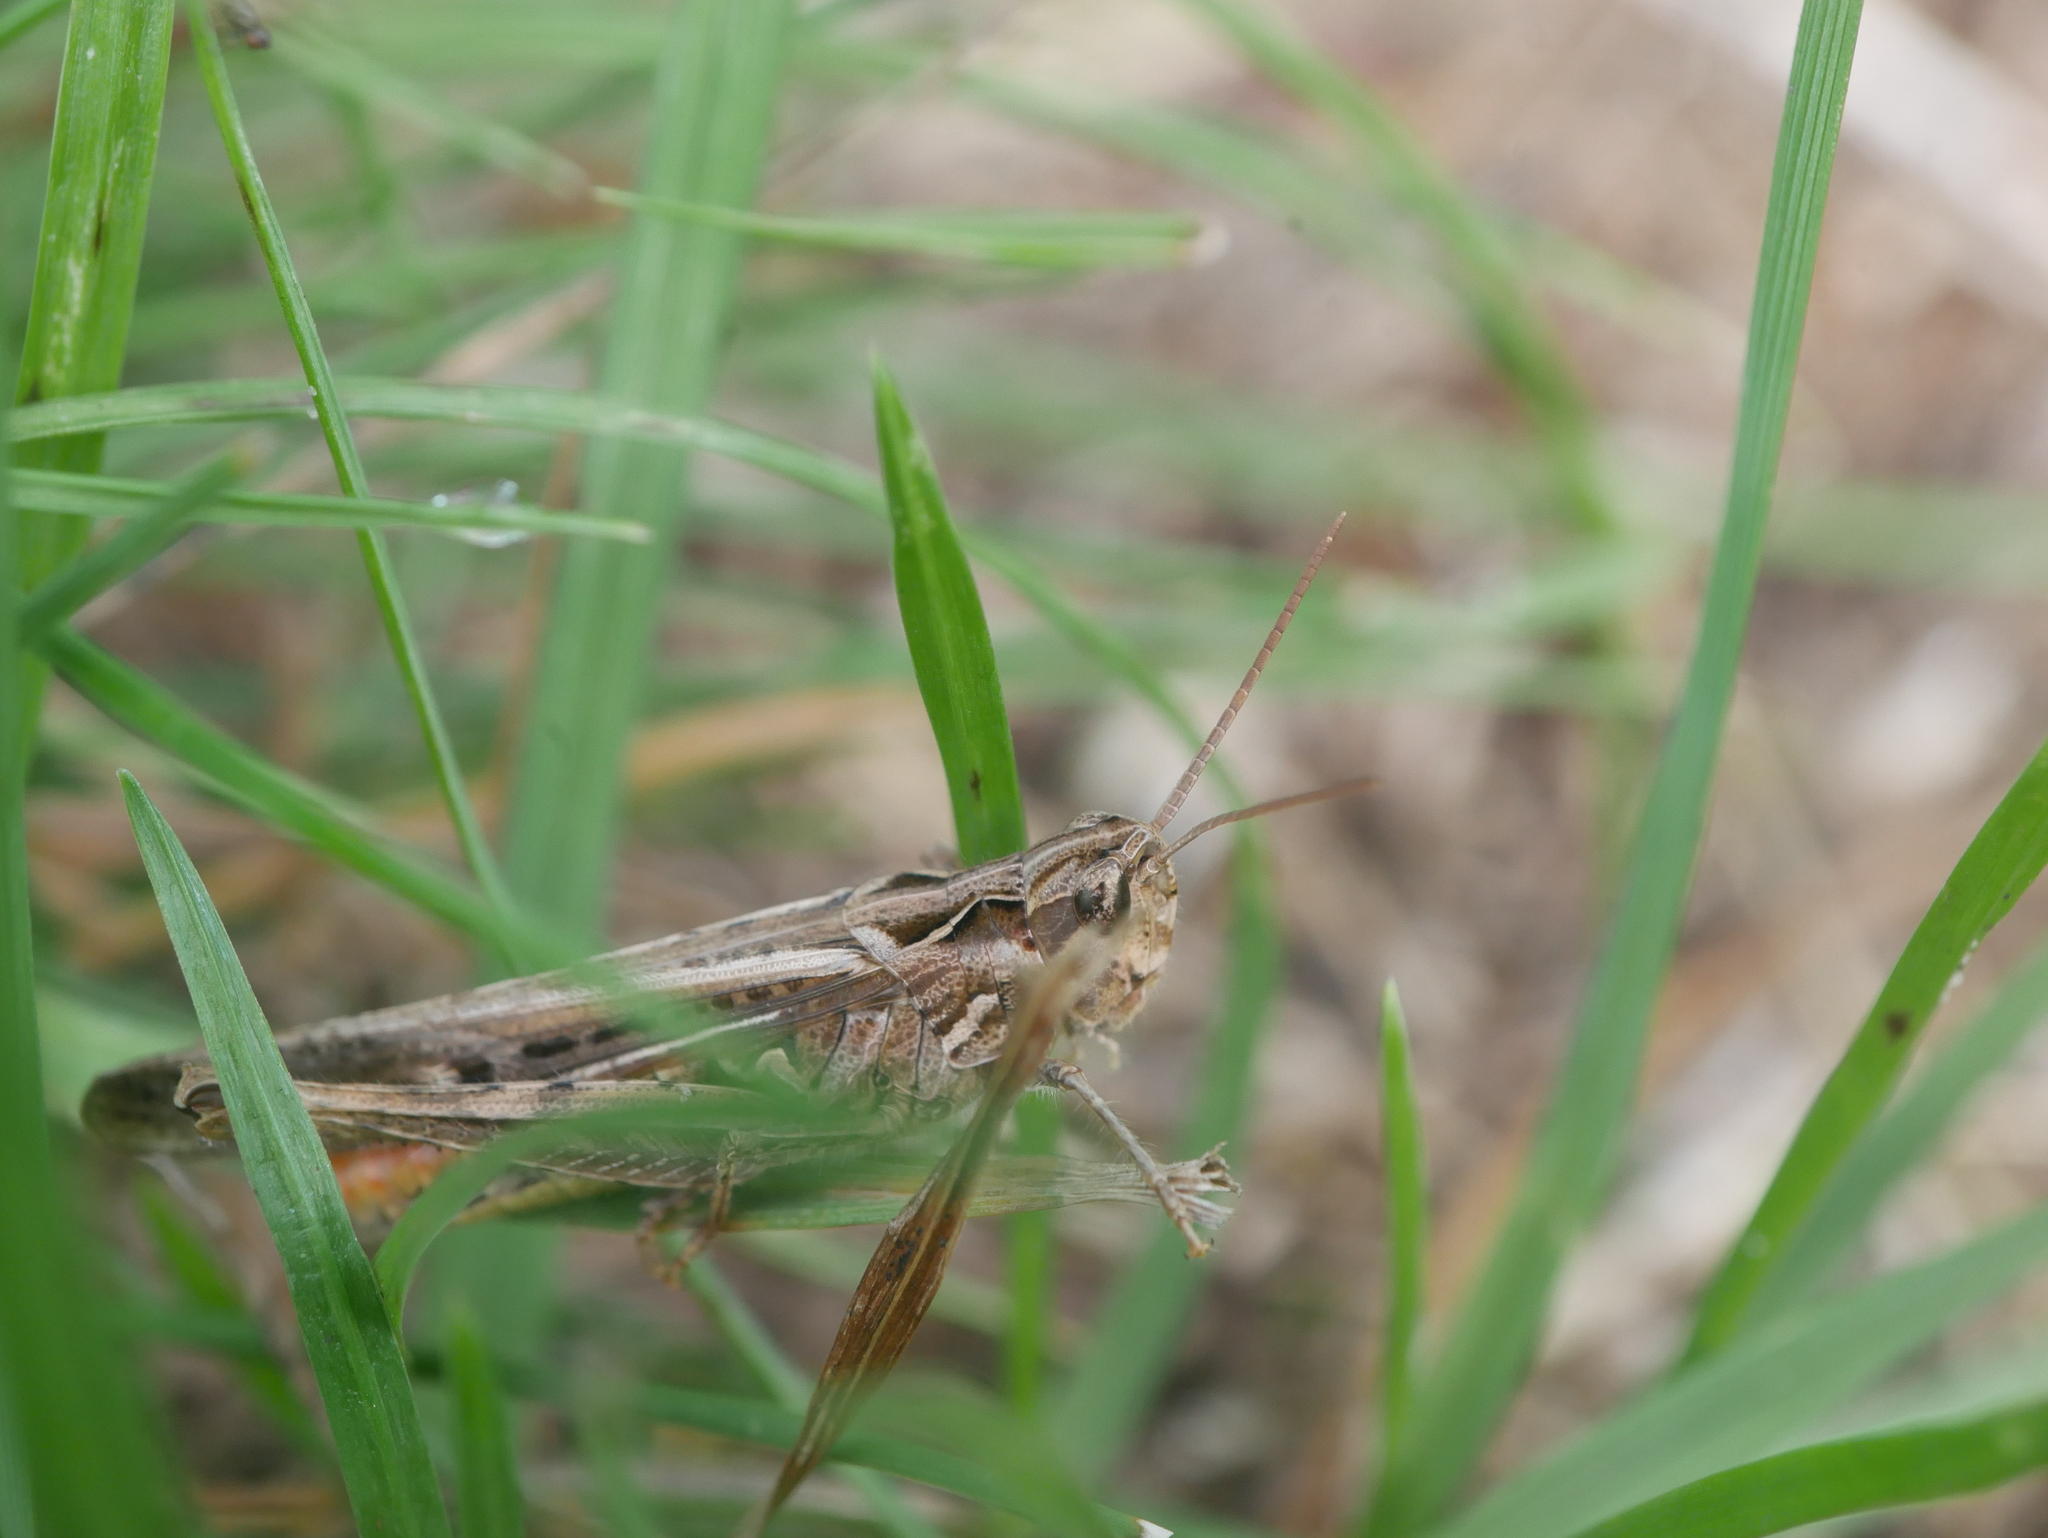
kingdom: Animalia
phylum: Arthropoda
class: Insecta
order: Orthoptera
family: Acrididae
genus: Chorthippus
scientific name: Chorthippus brunneus
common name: Field grasshopper
